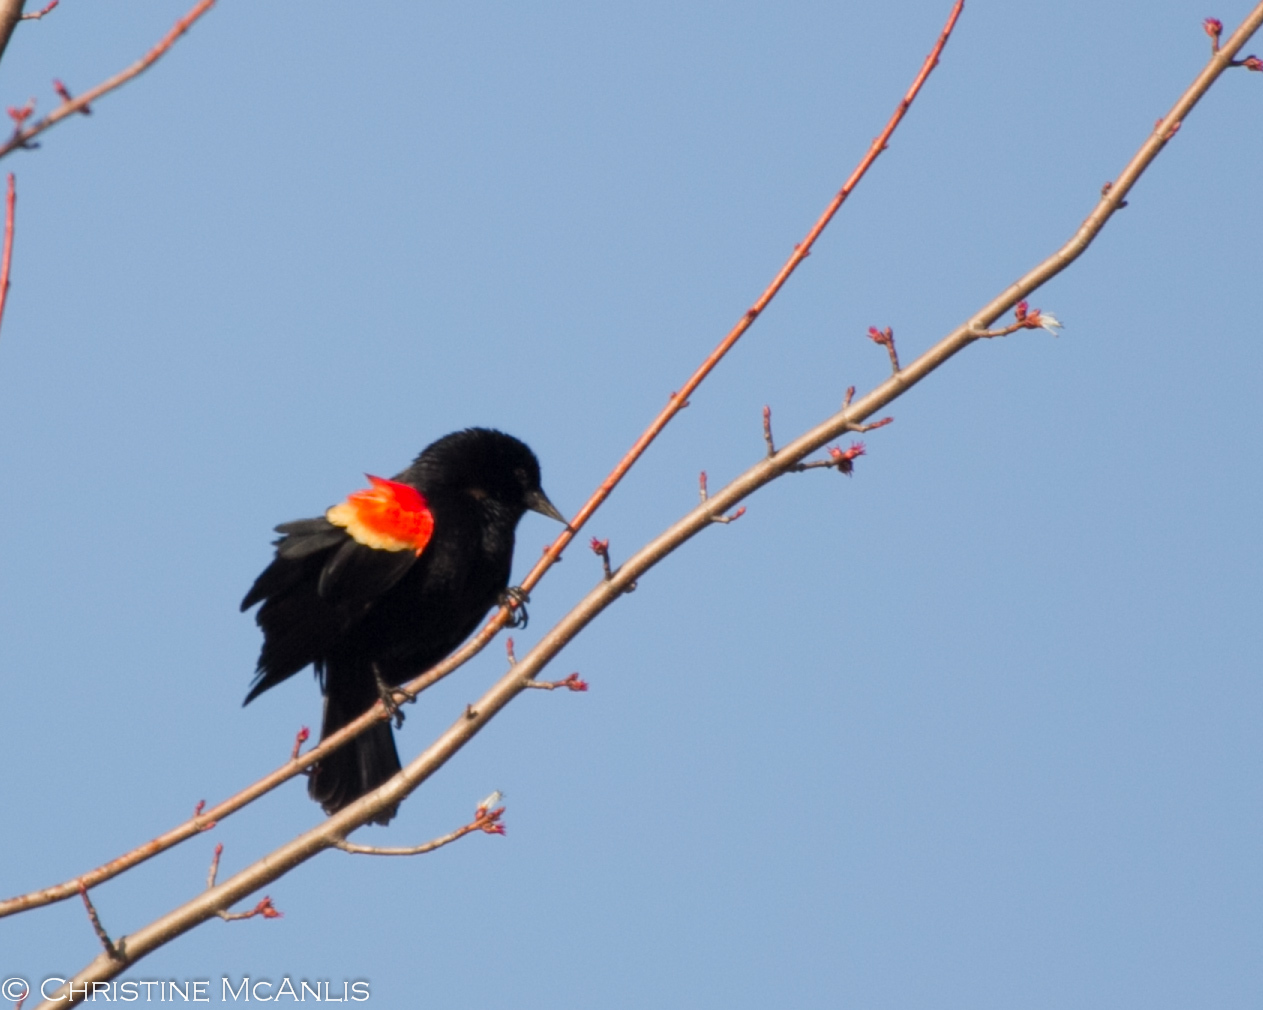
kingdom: Animalia
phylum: Chordata
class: Aves
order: Passeriformes
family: Icteridae
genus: Agelaius
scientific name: Agelaius phoeniceus
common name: Red-winged blackbird
